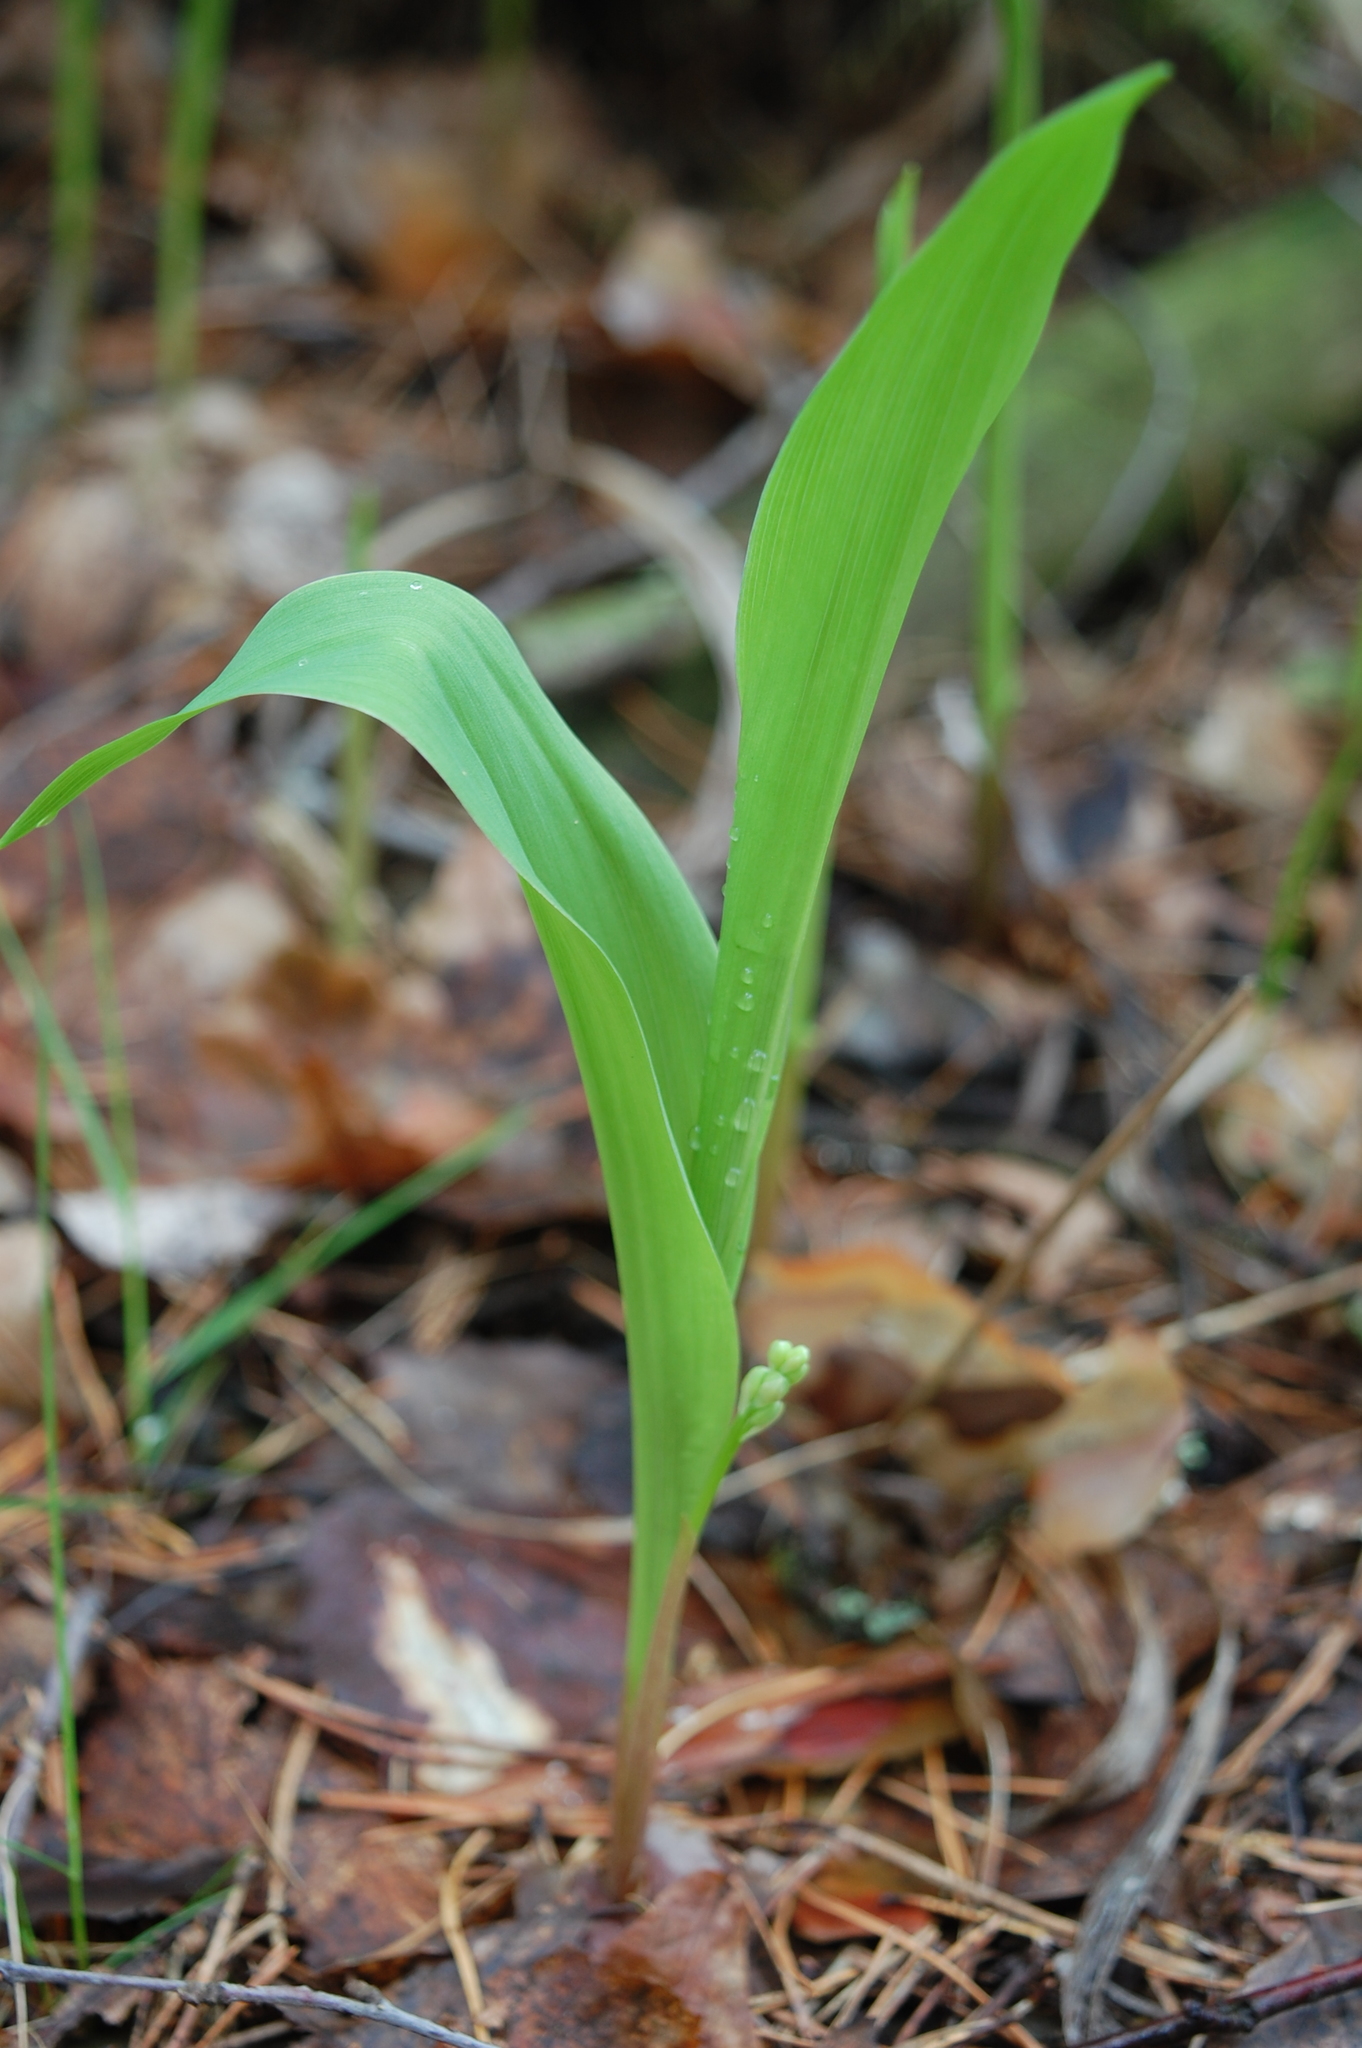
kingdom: Plantae
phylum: Tracheophyta
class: Liliopsida
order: Asparagales
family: Asparagaceae
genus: Convallaria
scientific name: Convallaria majalis
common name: Lily-of-the-valley
